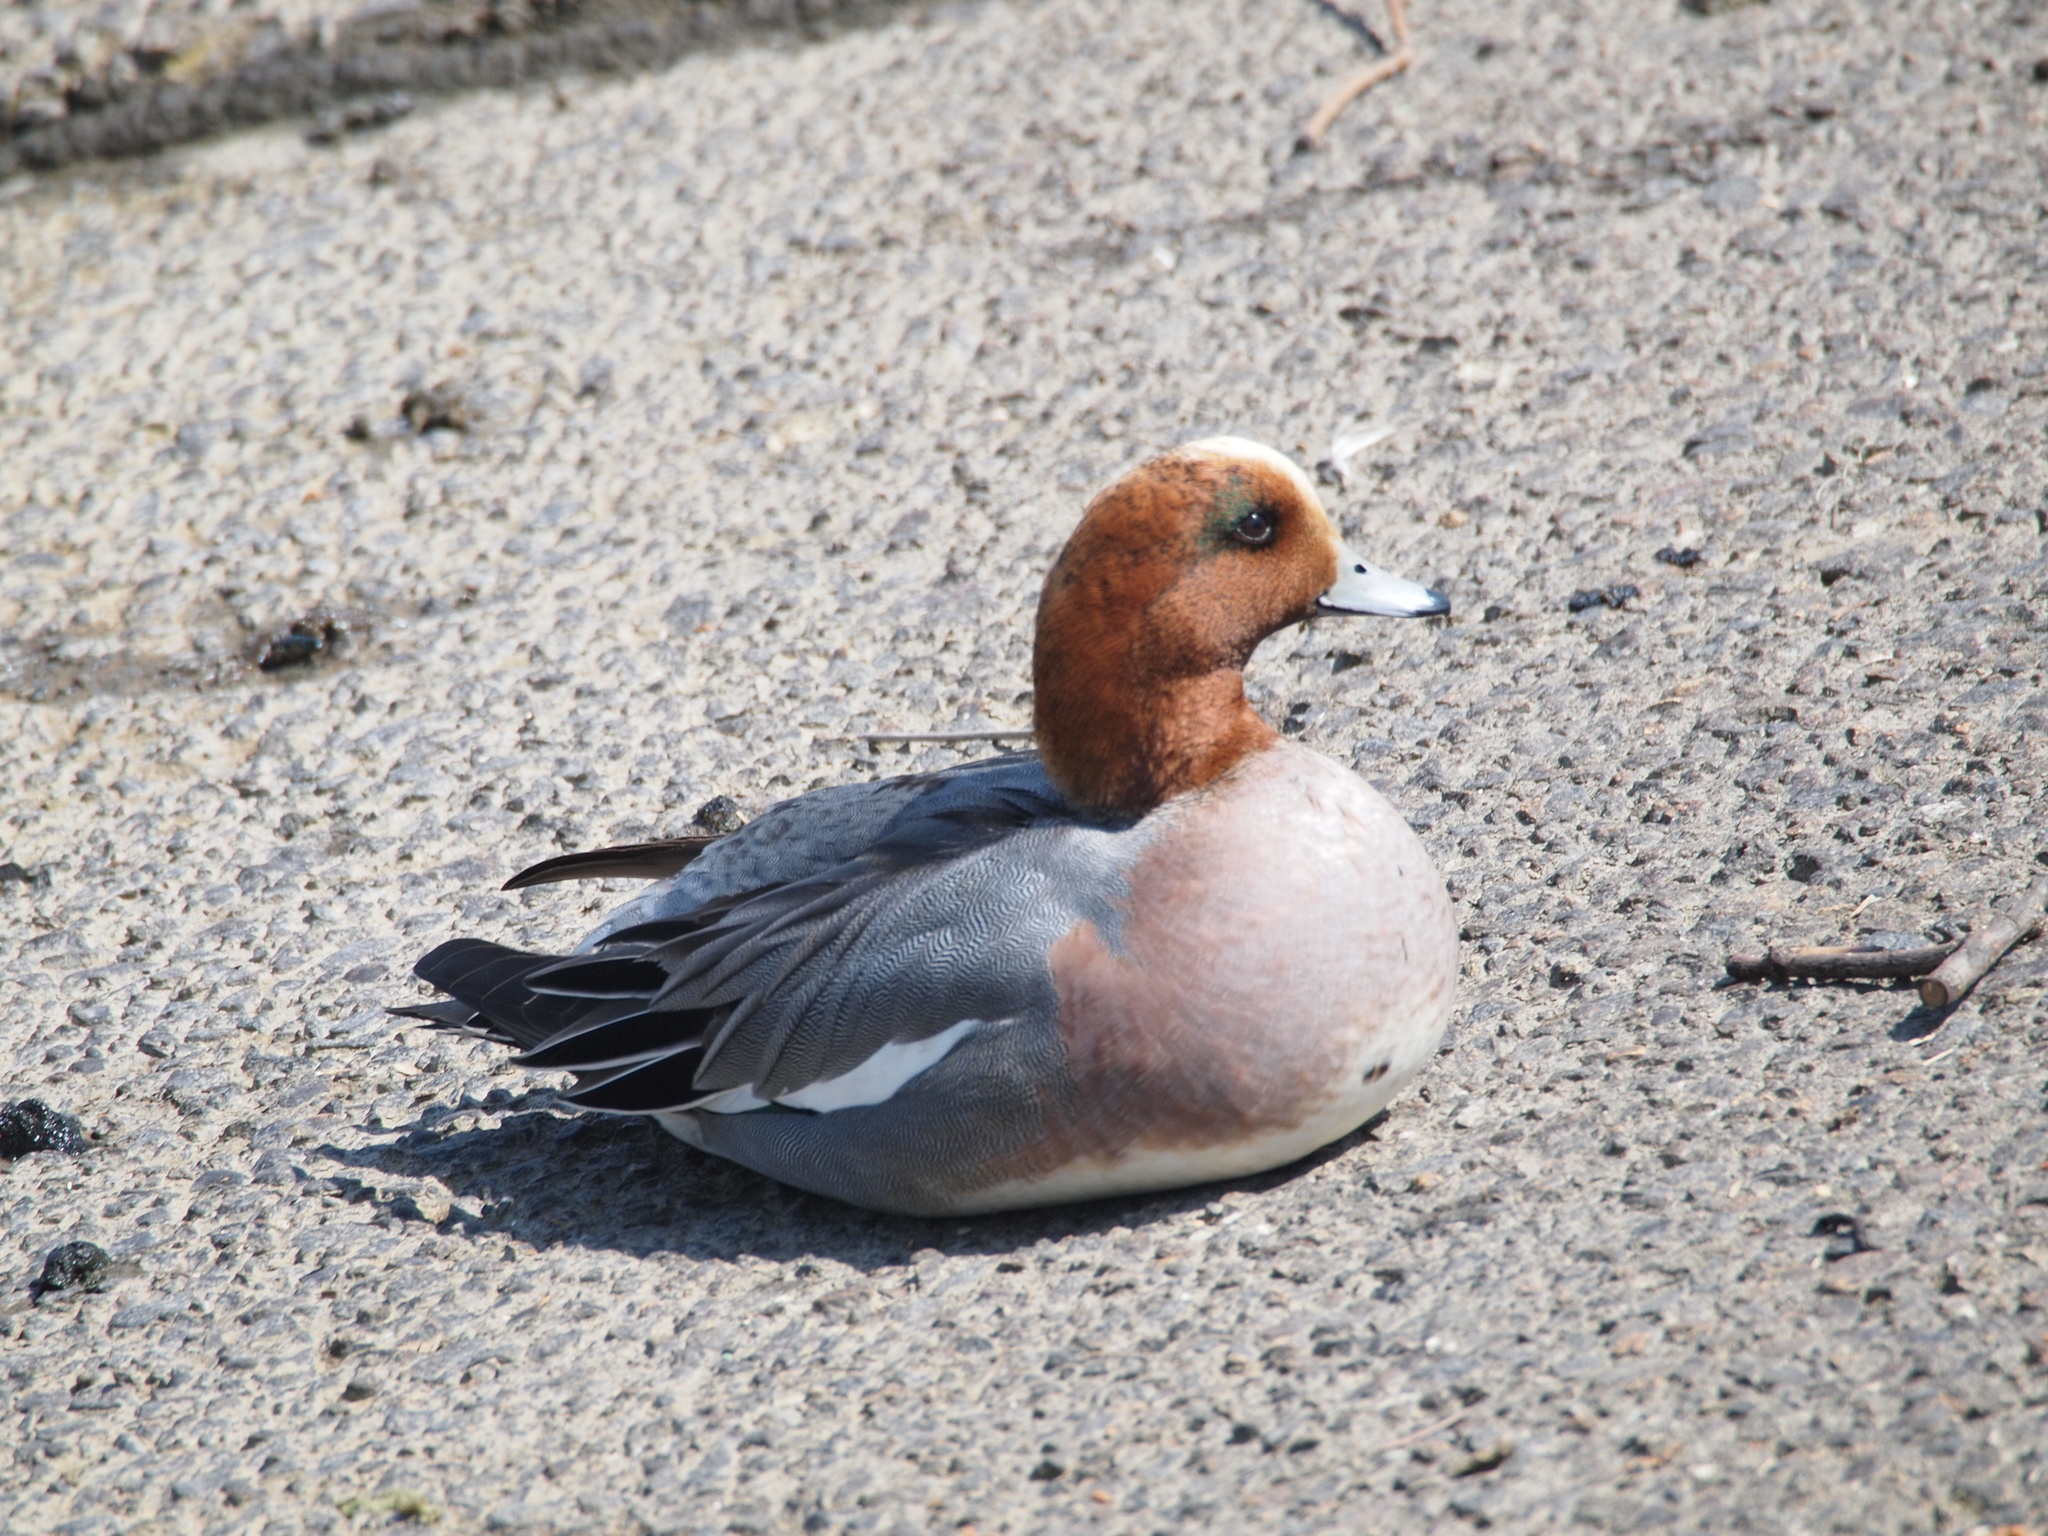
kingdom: Animalia
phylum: Chordata
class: Aves
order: Anseriformes
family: Anatidae
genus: Mareca
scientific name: Mareca penelope
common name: Eurasian wigeon
